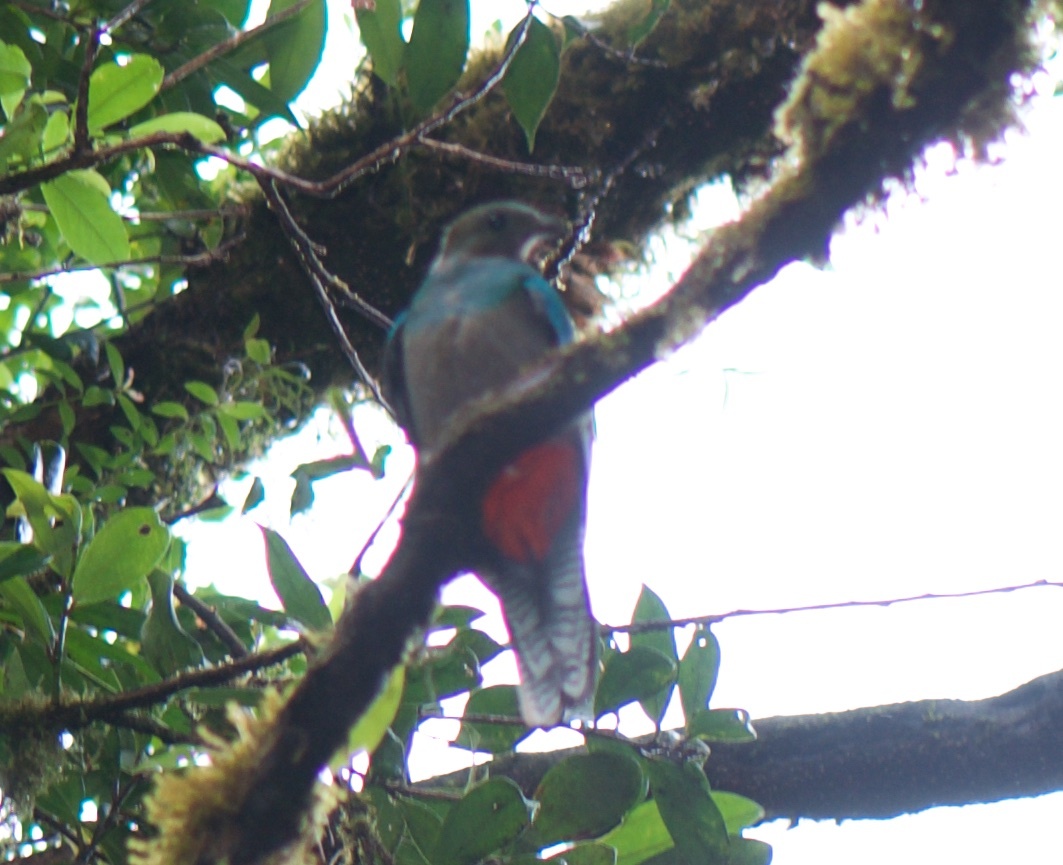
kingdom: Animalia
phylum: Chordata
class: Aves
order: Trogoniformes
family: Trogonidae
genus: Pharomachrus
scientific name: Pharomachrus mocinno
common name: Resplendent quetzal
